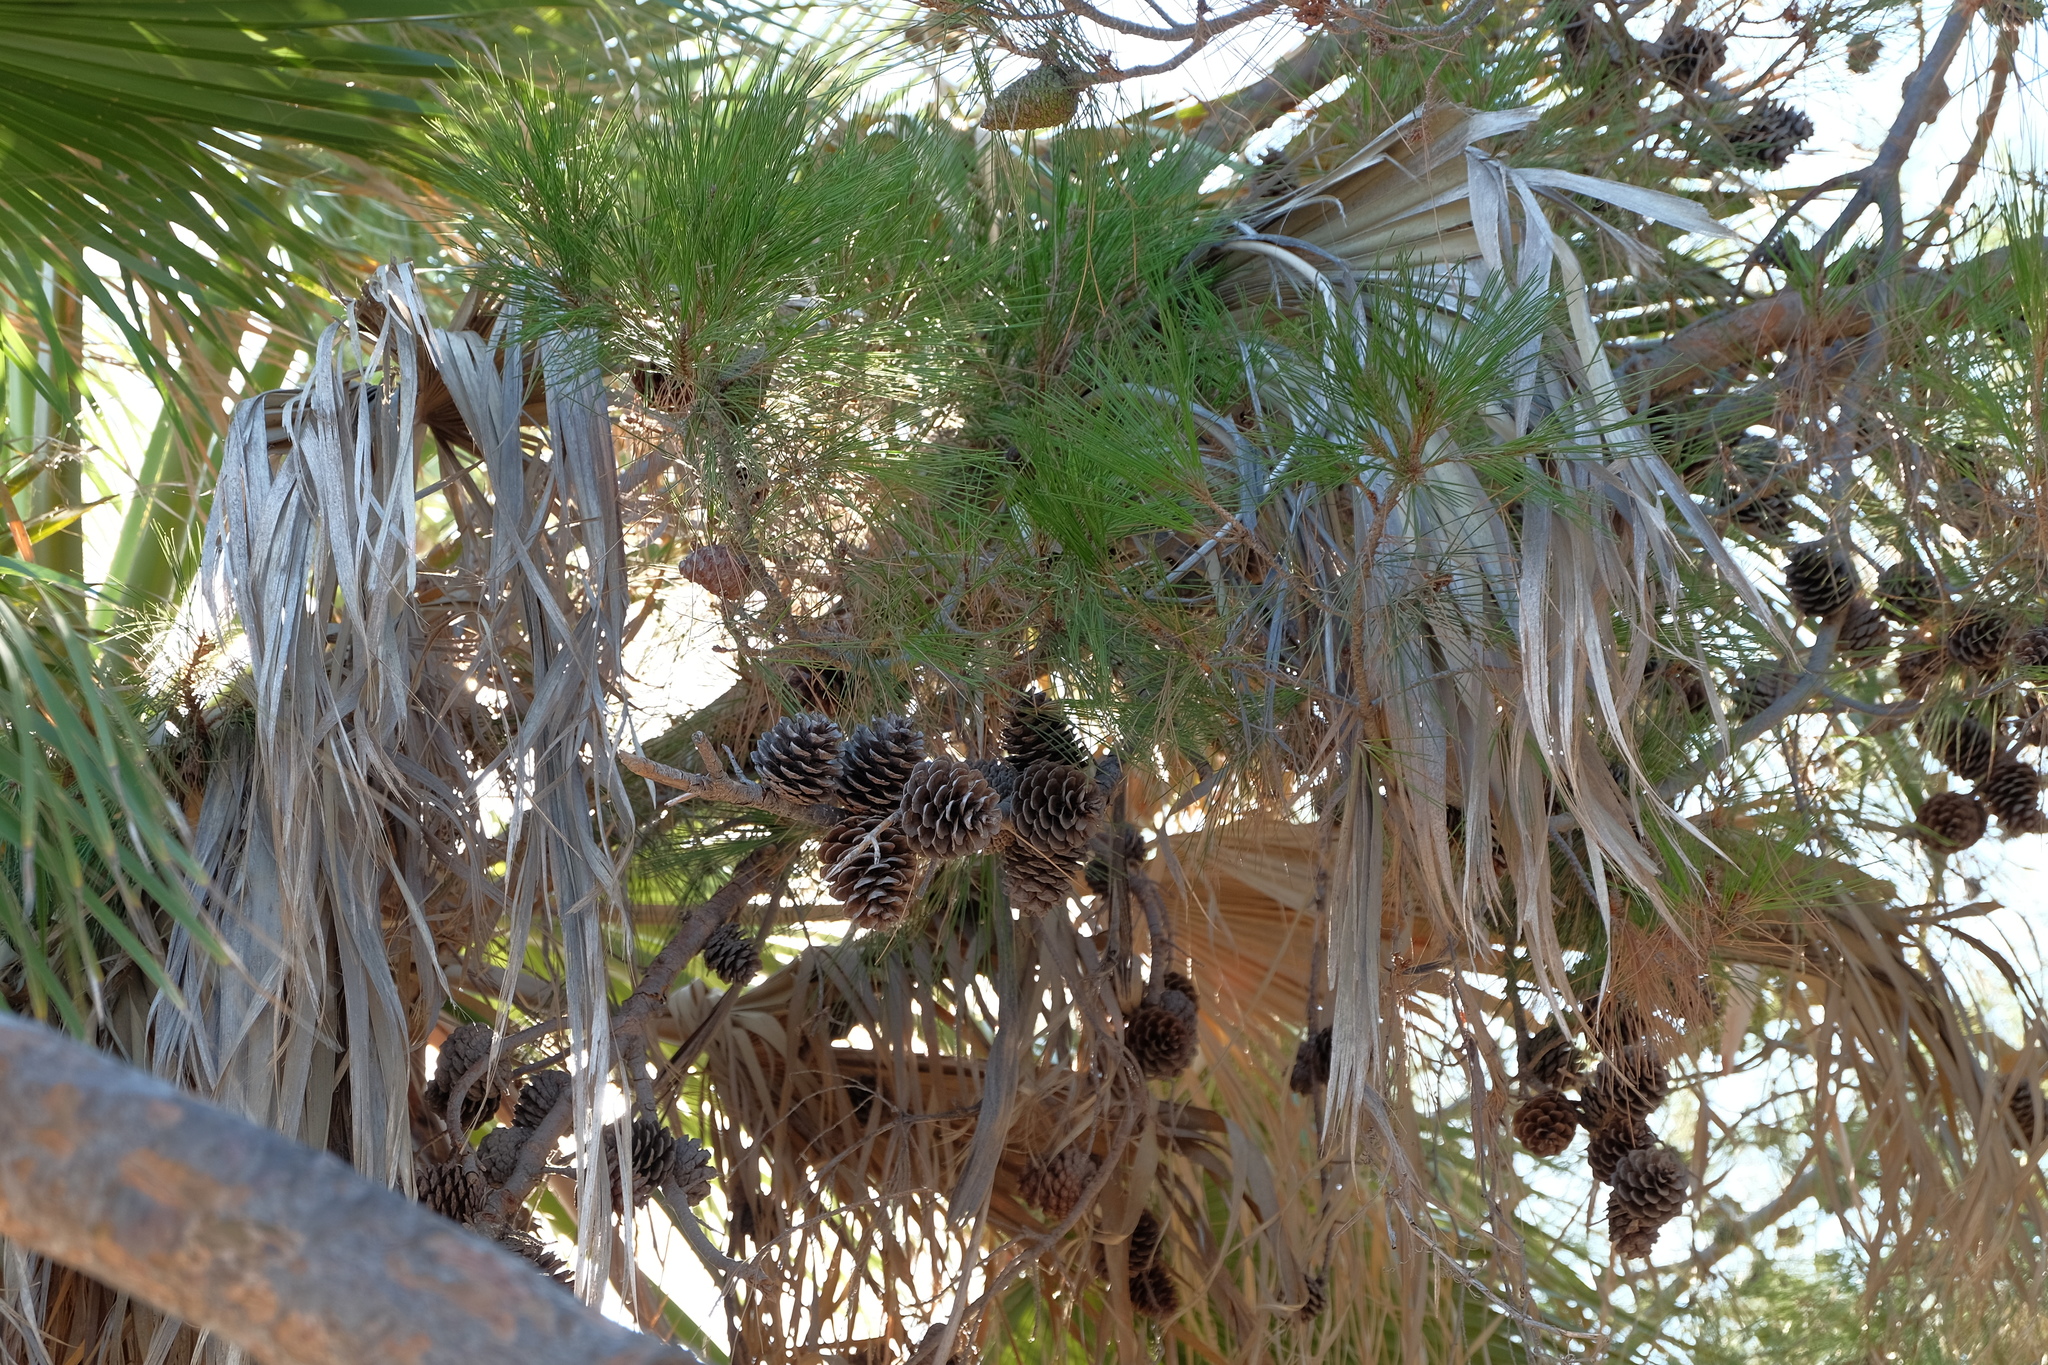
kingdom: Plantae
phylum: Tracheophyta
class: Pinopsida
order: Pinales
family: Pinaceae
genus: Pinus
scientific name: Pinus brutia
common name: Turkish pine
